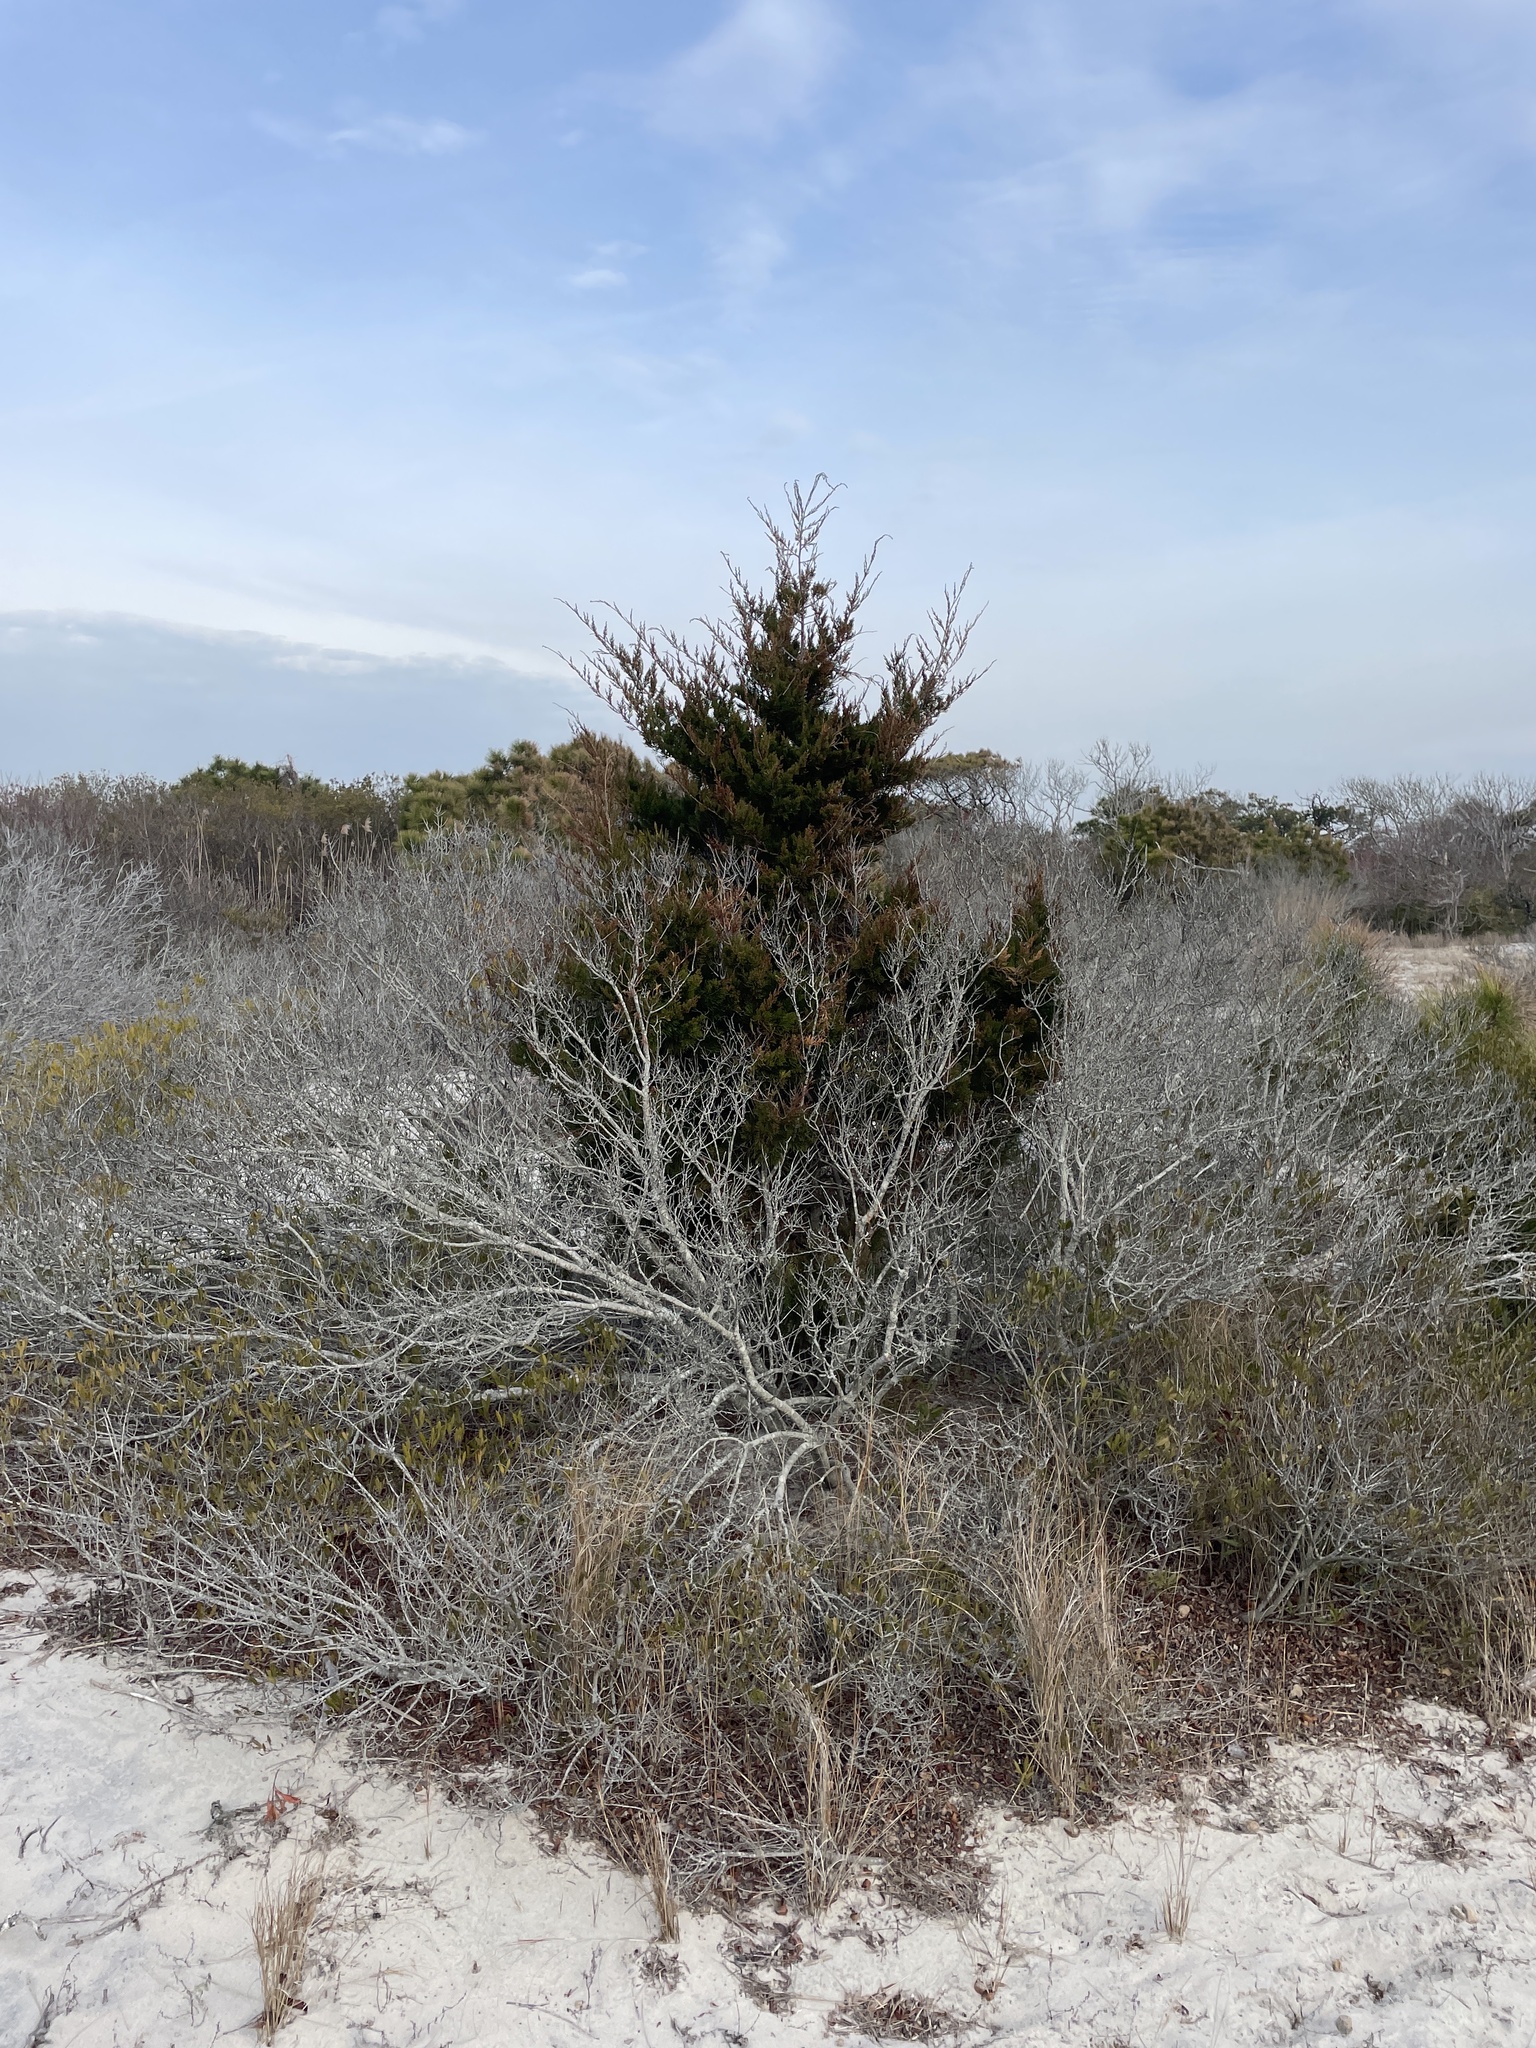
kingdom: Plantae
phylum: Tracheophyta
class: Pinopsida
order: Pinales
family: Cupressaceae
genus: Juniperus
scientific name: Juniperus virginiana
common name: Red juniper
